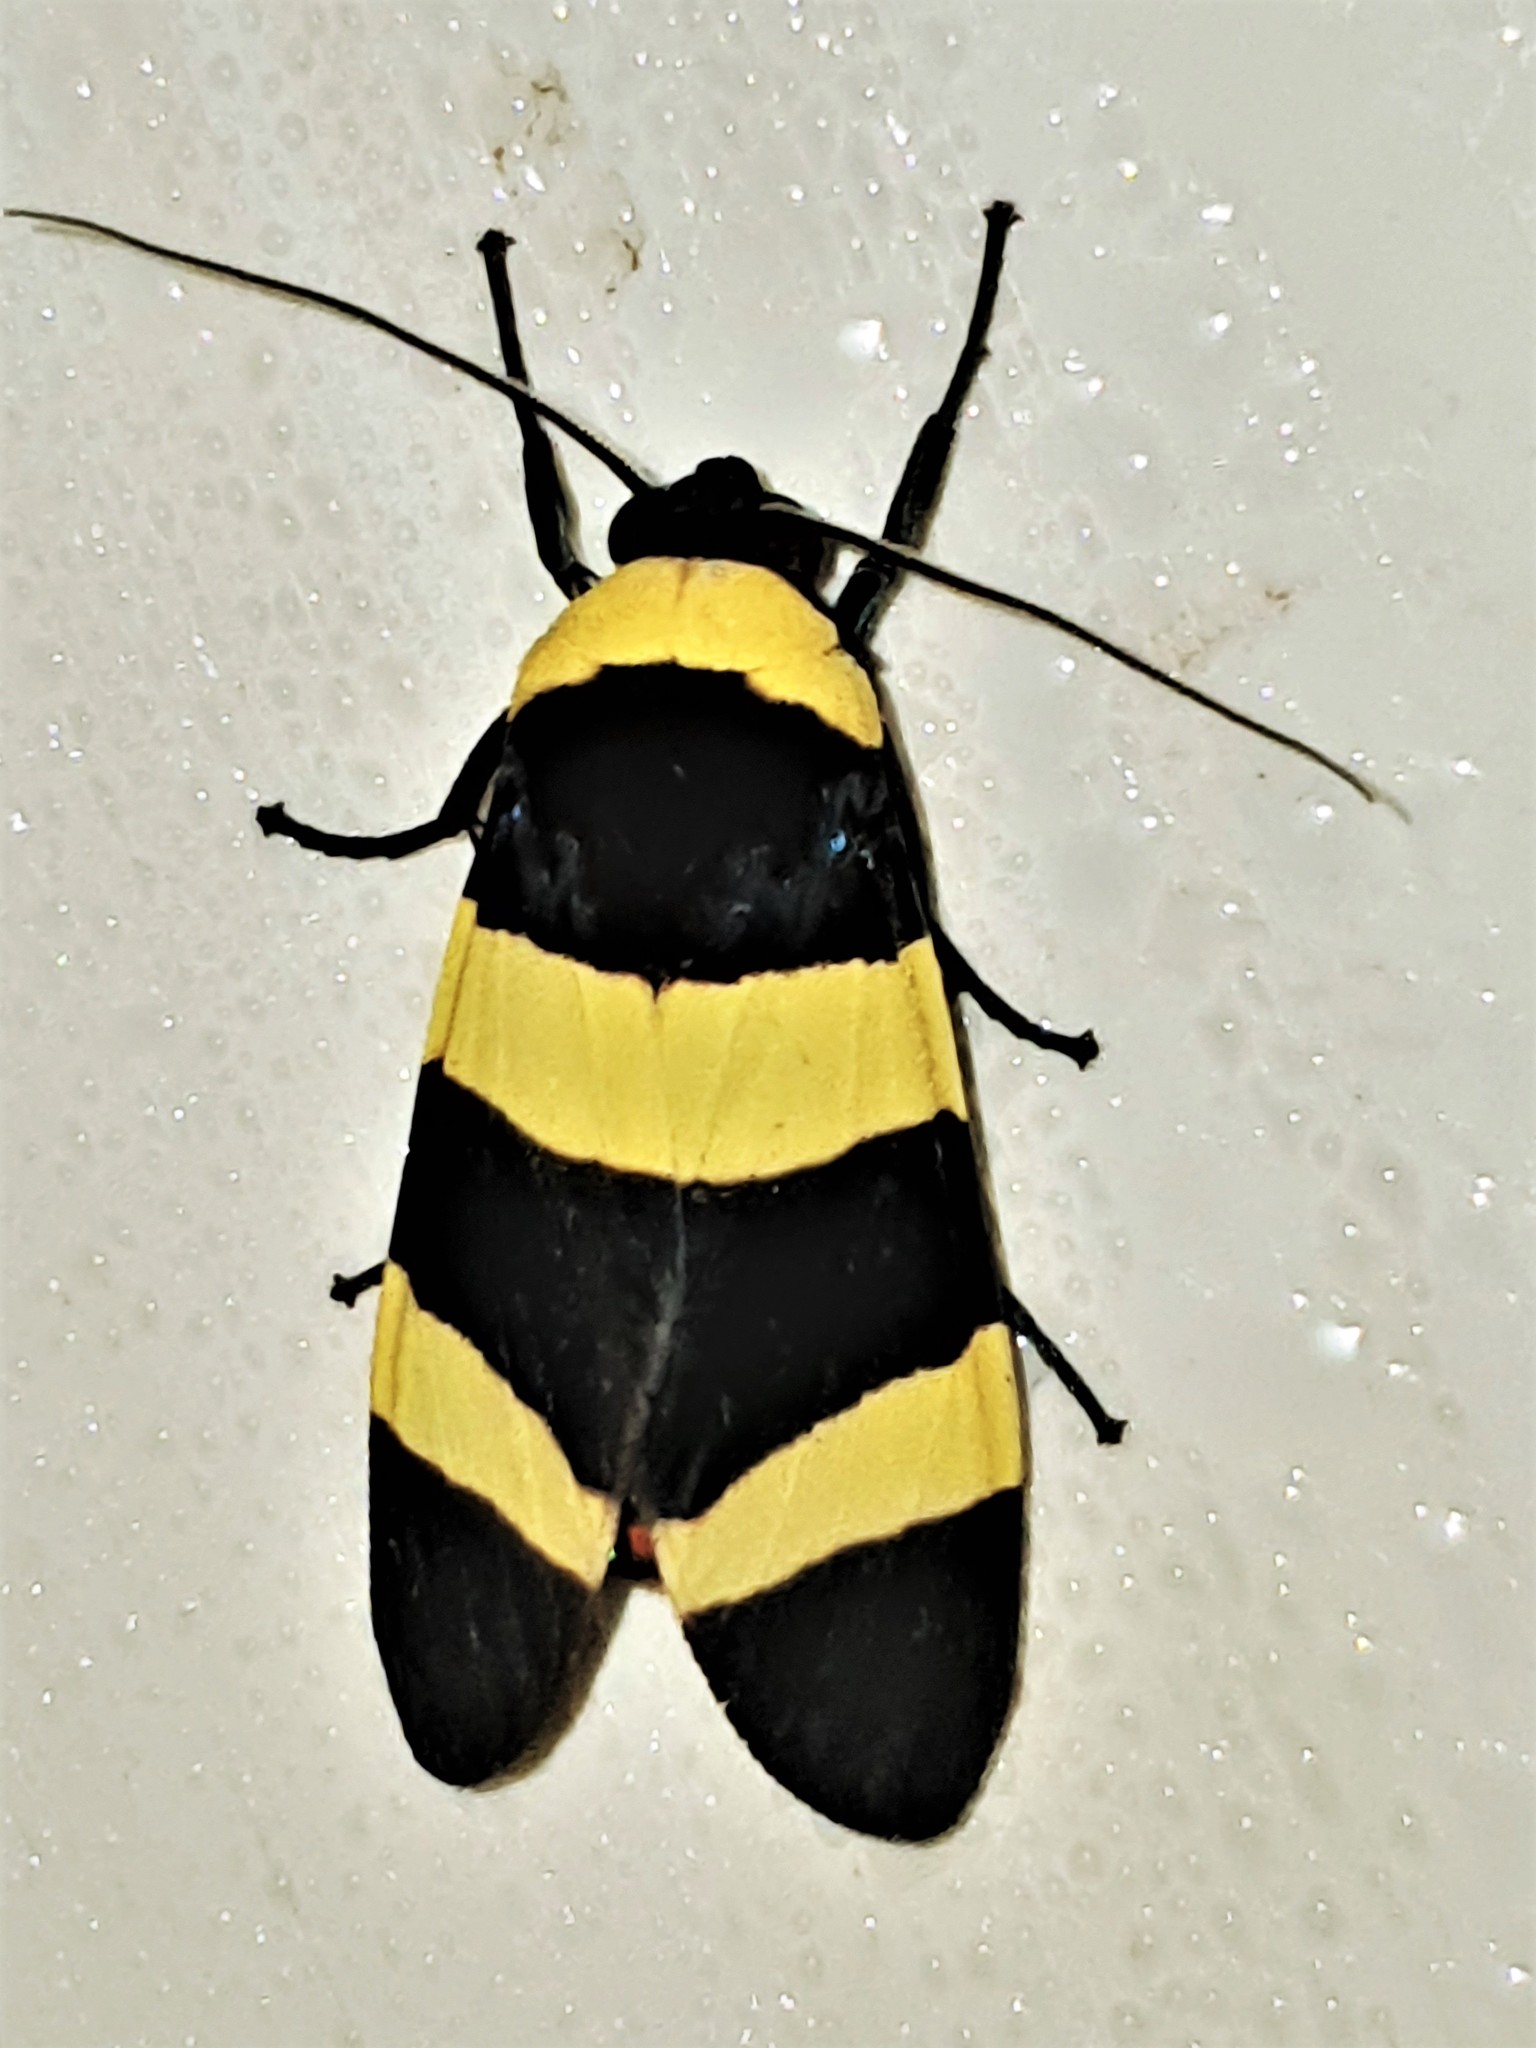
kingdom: Animalia
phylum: Arthropoda
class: Insecta
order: Lepidoptera
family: Erebidae
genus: Viviennea
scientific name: Viviennea moma
